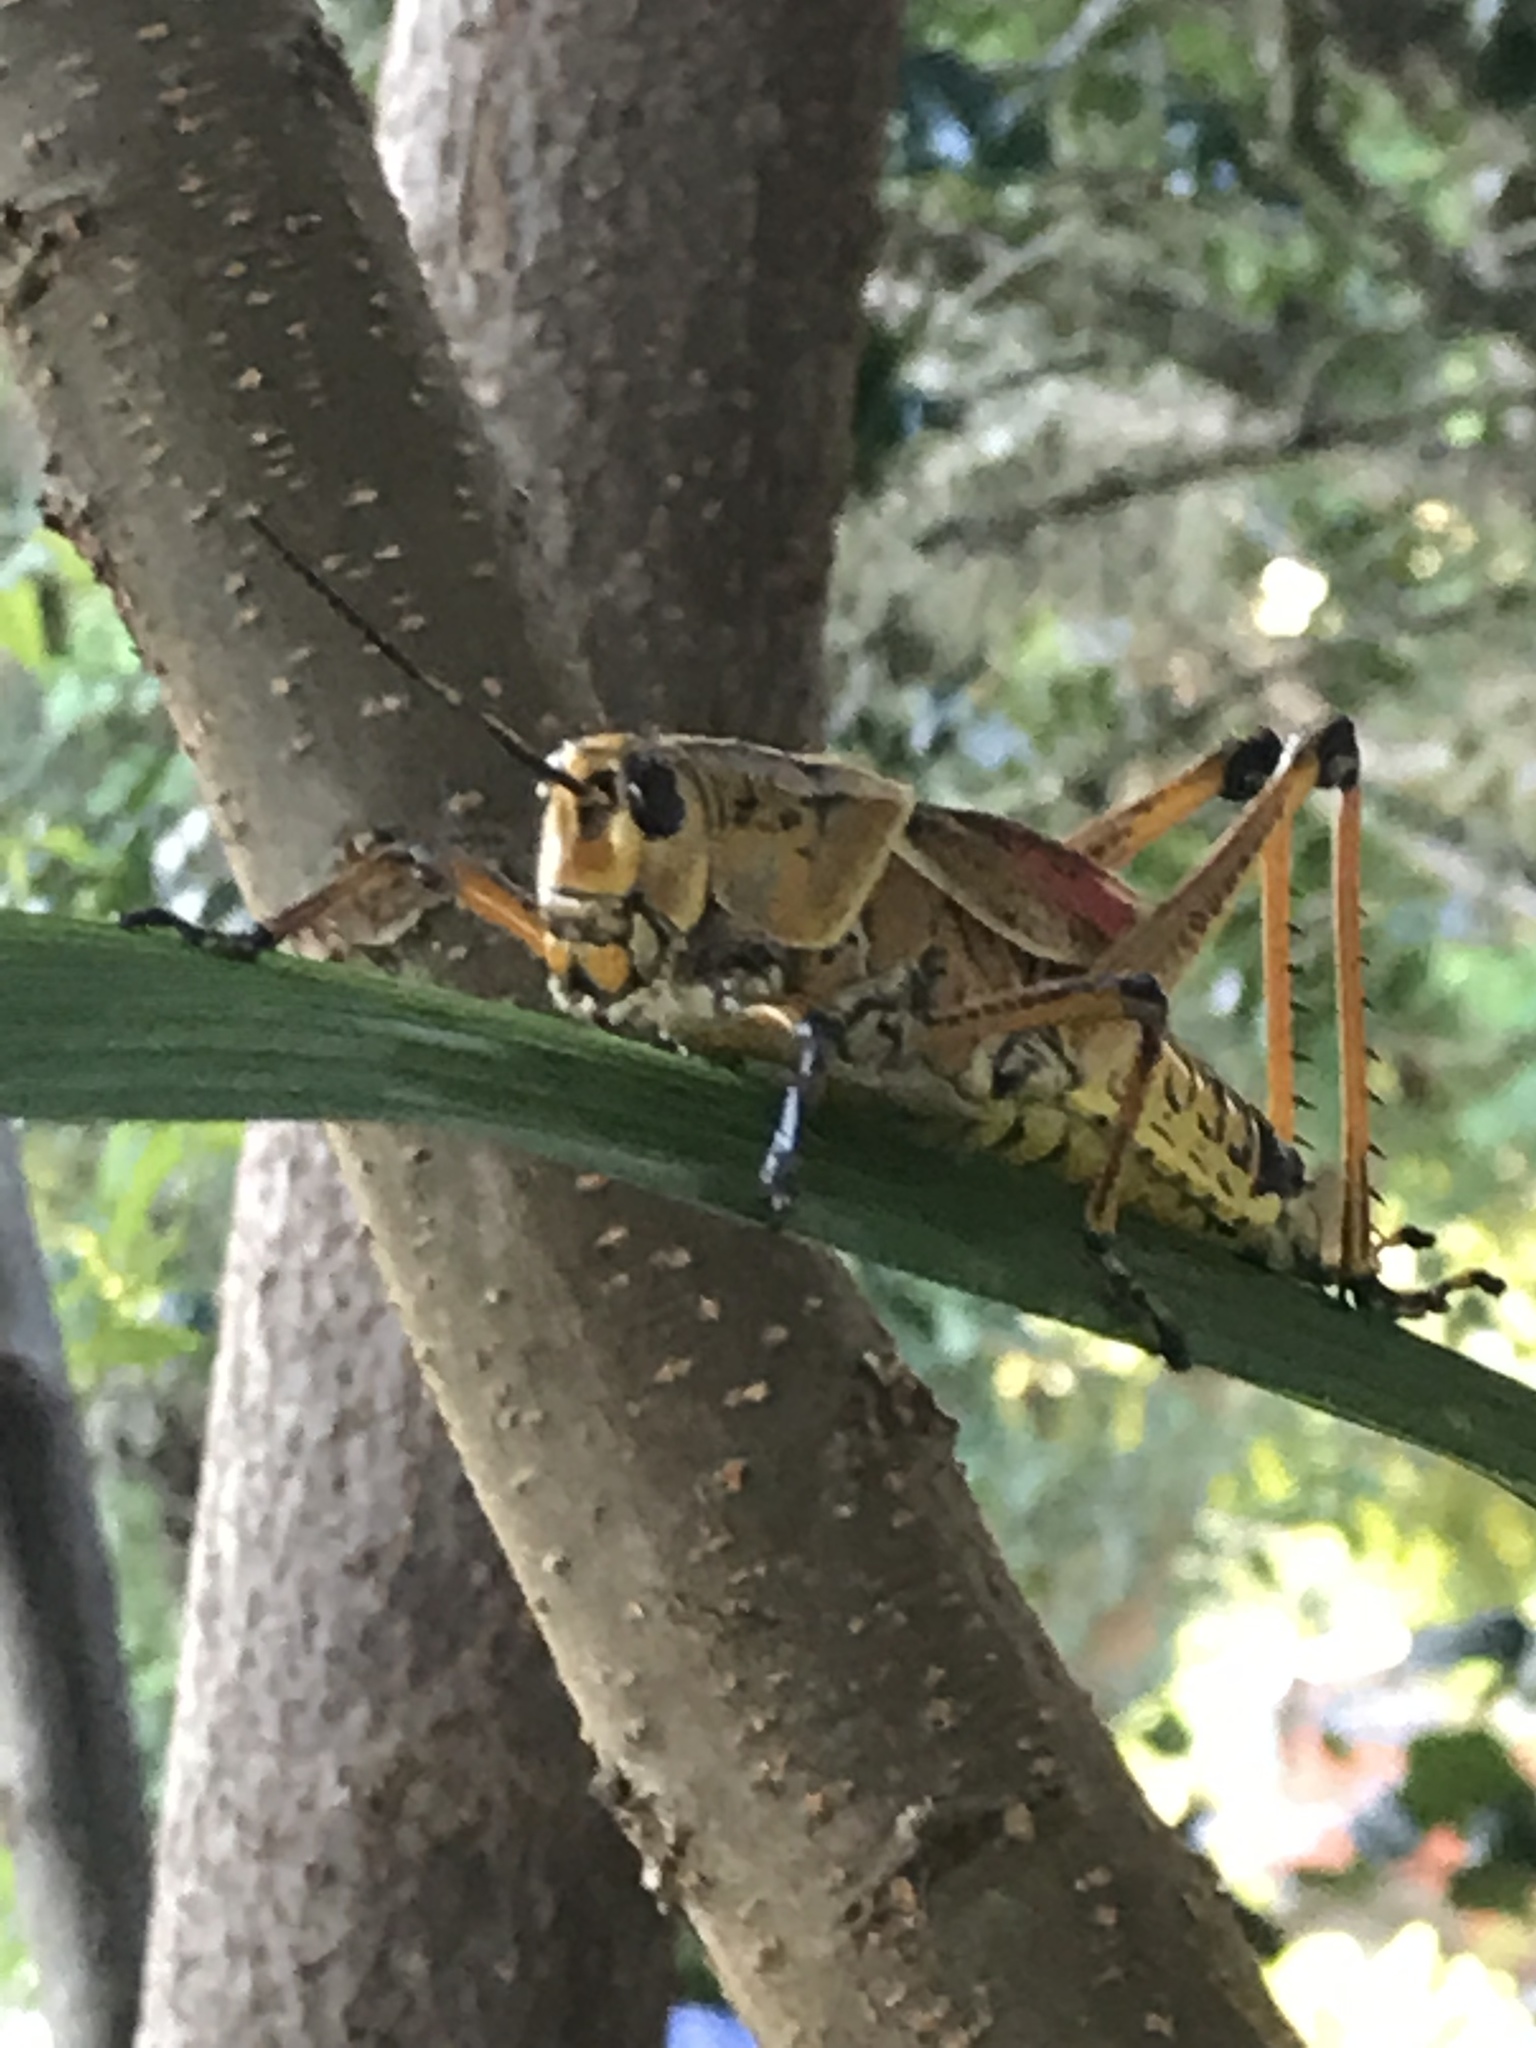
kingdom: Animalia
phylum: Arthropoda
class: Insecta
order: Orthoptera
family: Romaleidae
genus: Romalea
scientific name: Romalea microptera
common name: Eastern lubber grasshopper
